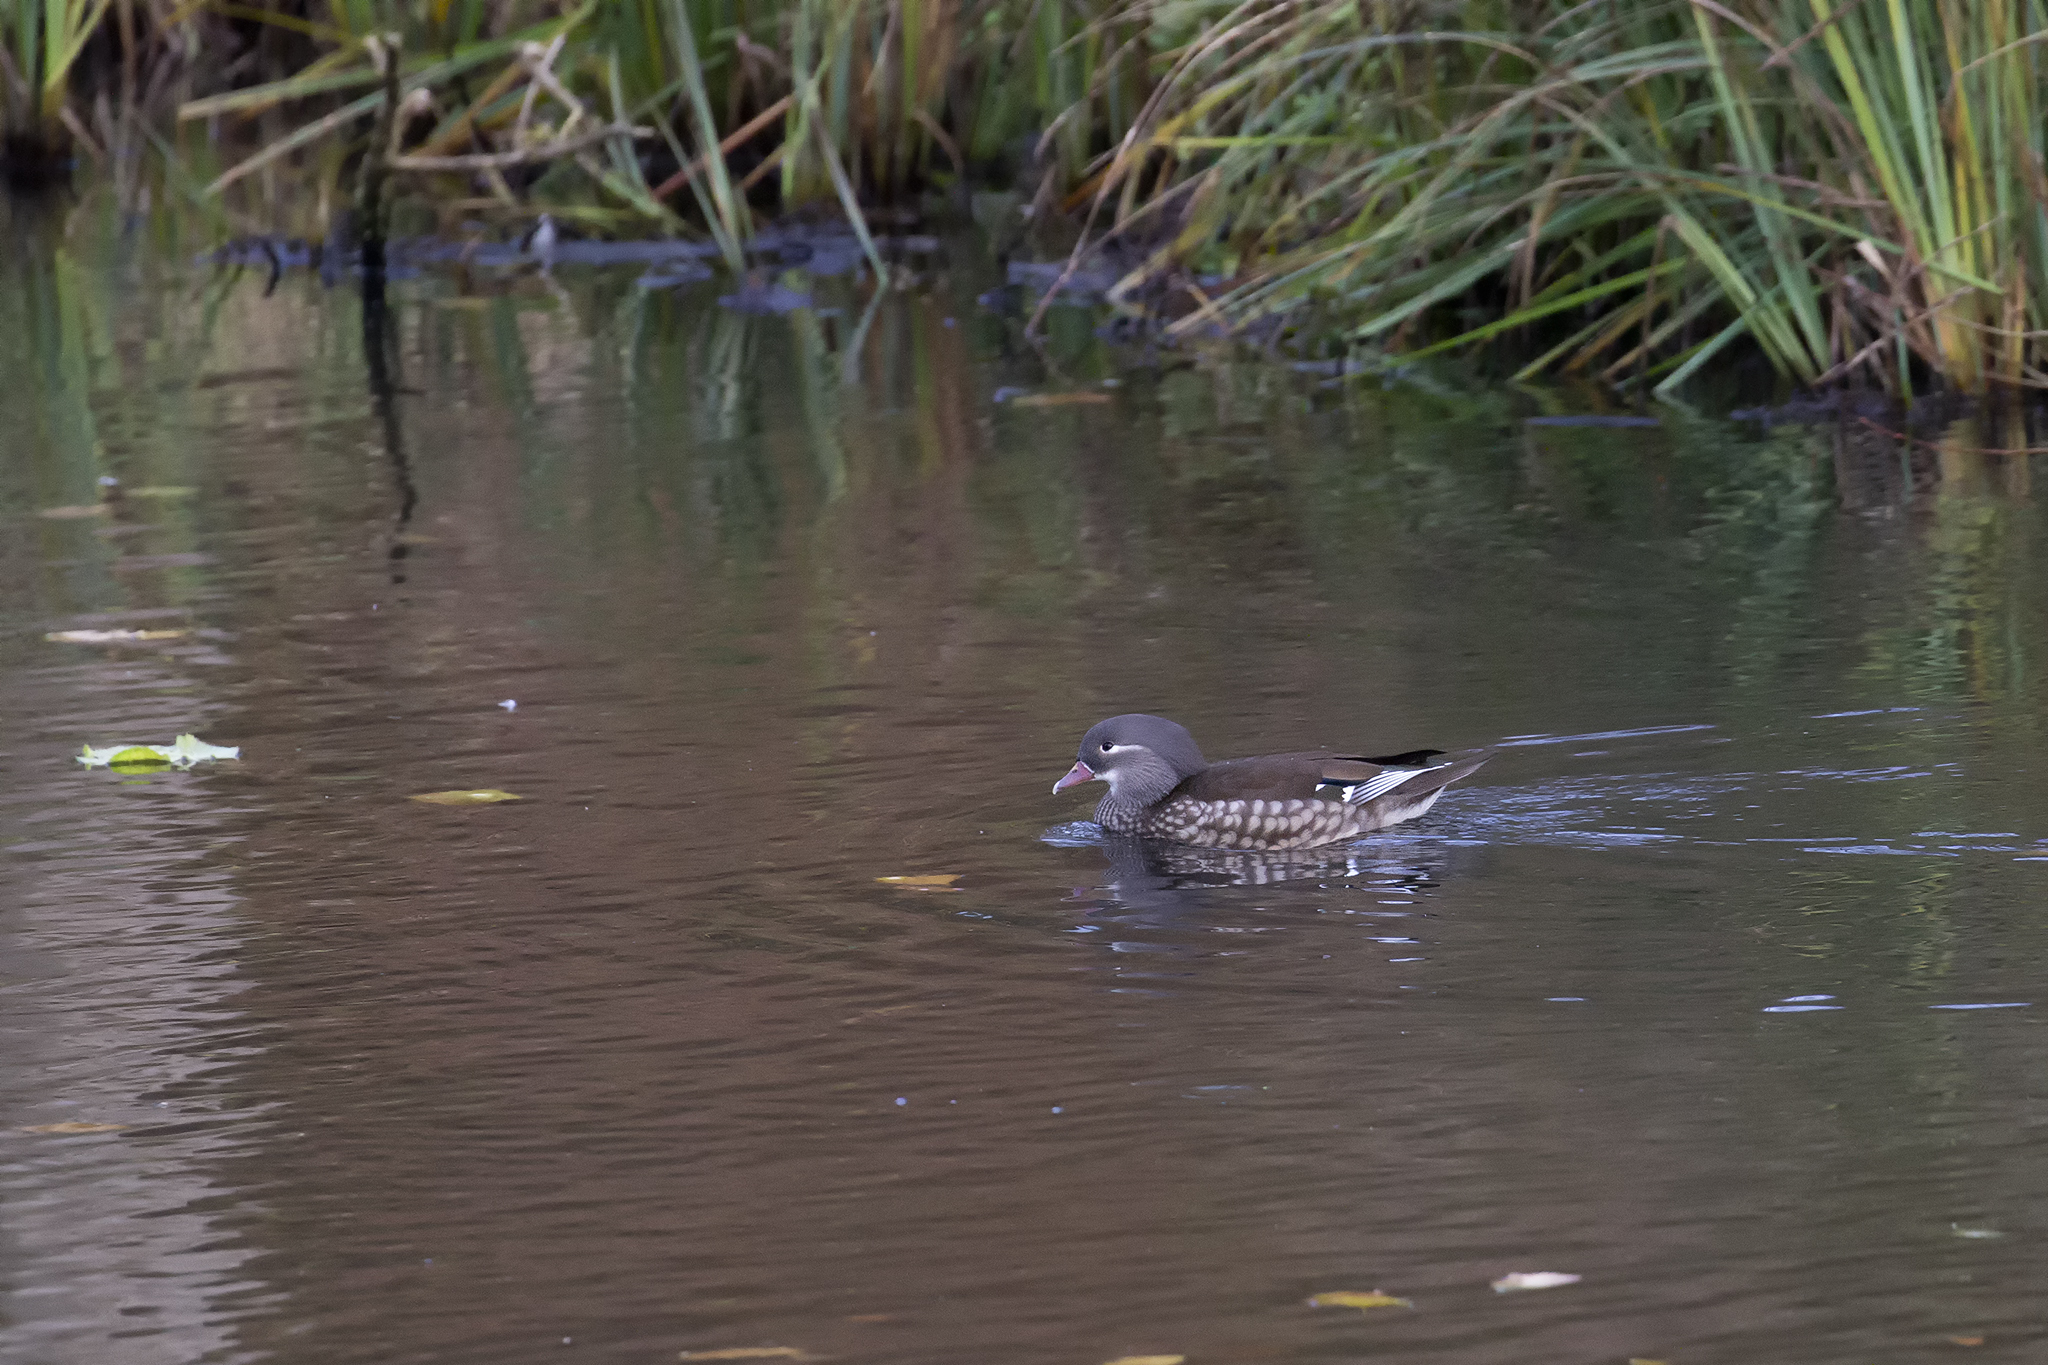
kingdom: Animalia
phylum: Chordata
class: Aves
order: Anseriformes
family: Anatidae
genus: Aix
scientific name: Aix galericulata
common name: Mandarin duck
